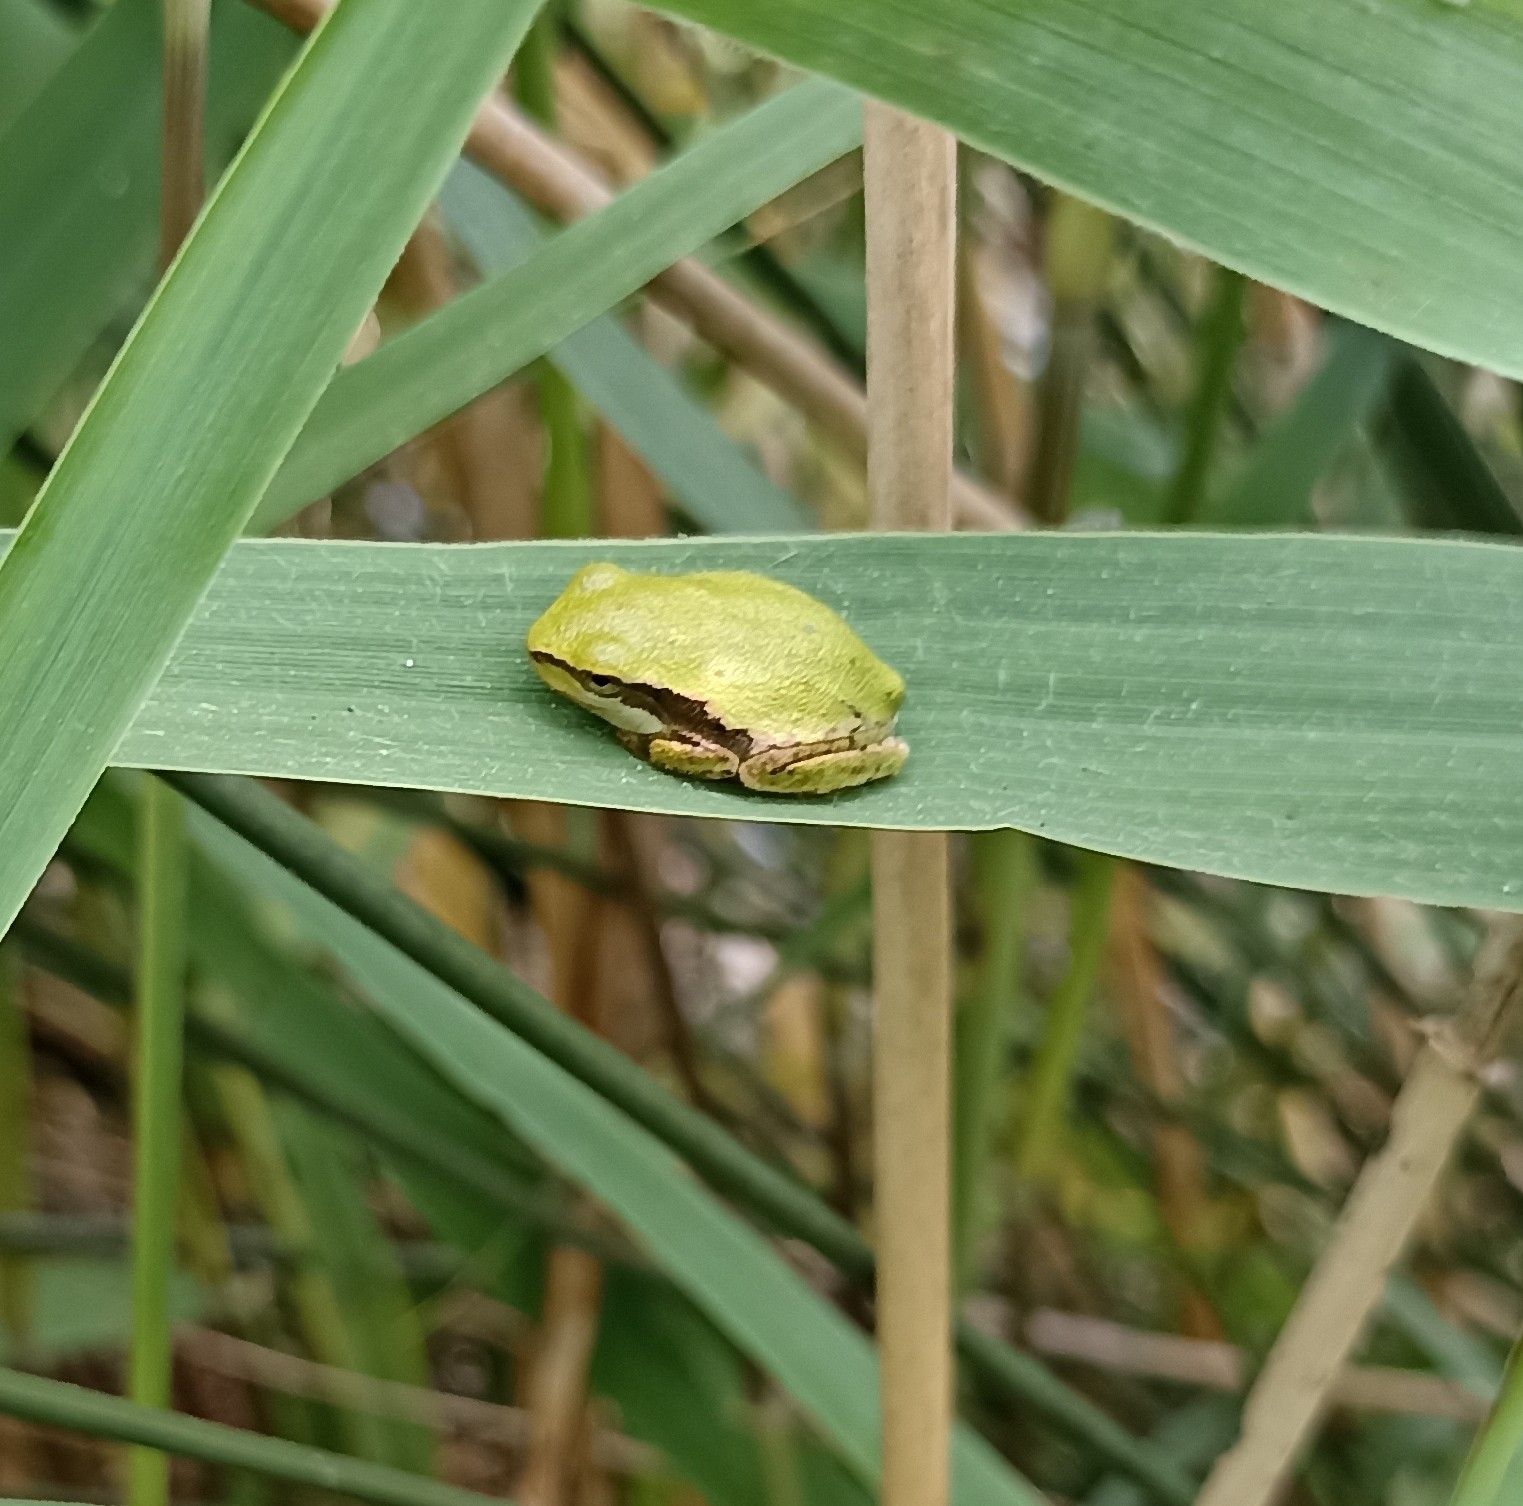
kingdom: Animalia
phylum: Chordata
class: Amphibia
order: Anura
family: Hylidae
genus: Hyla
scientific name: Hyla meridionalis
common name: Stripeless tree frog
